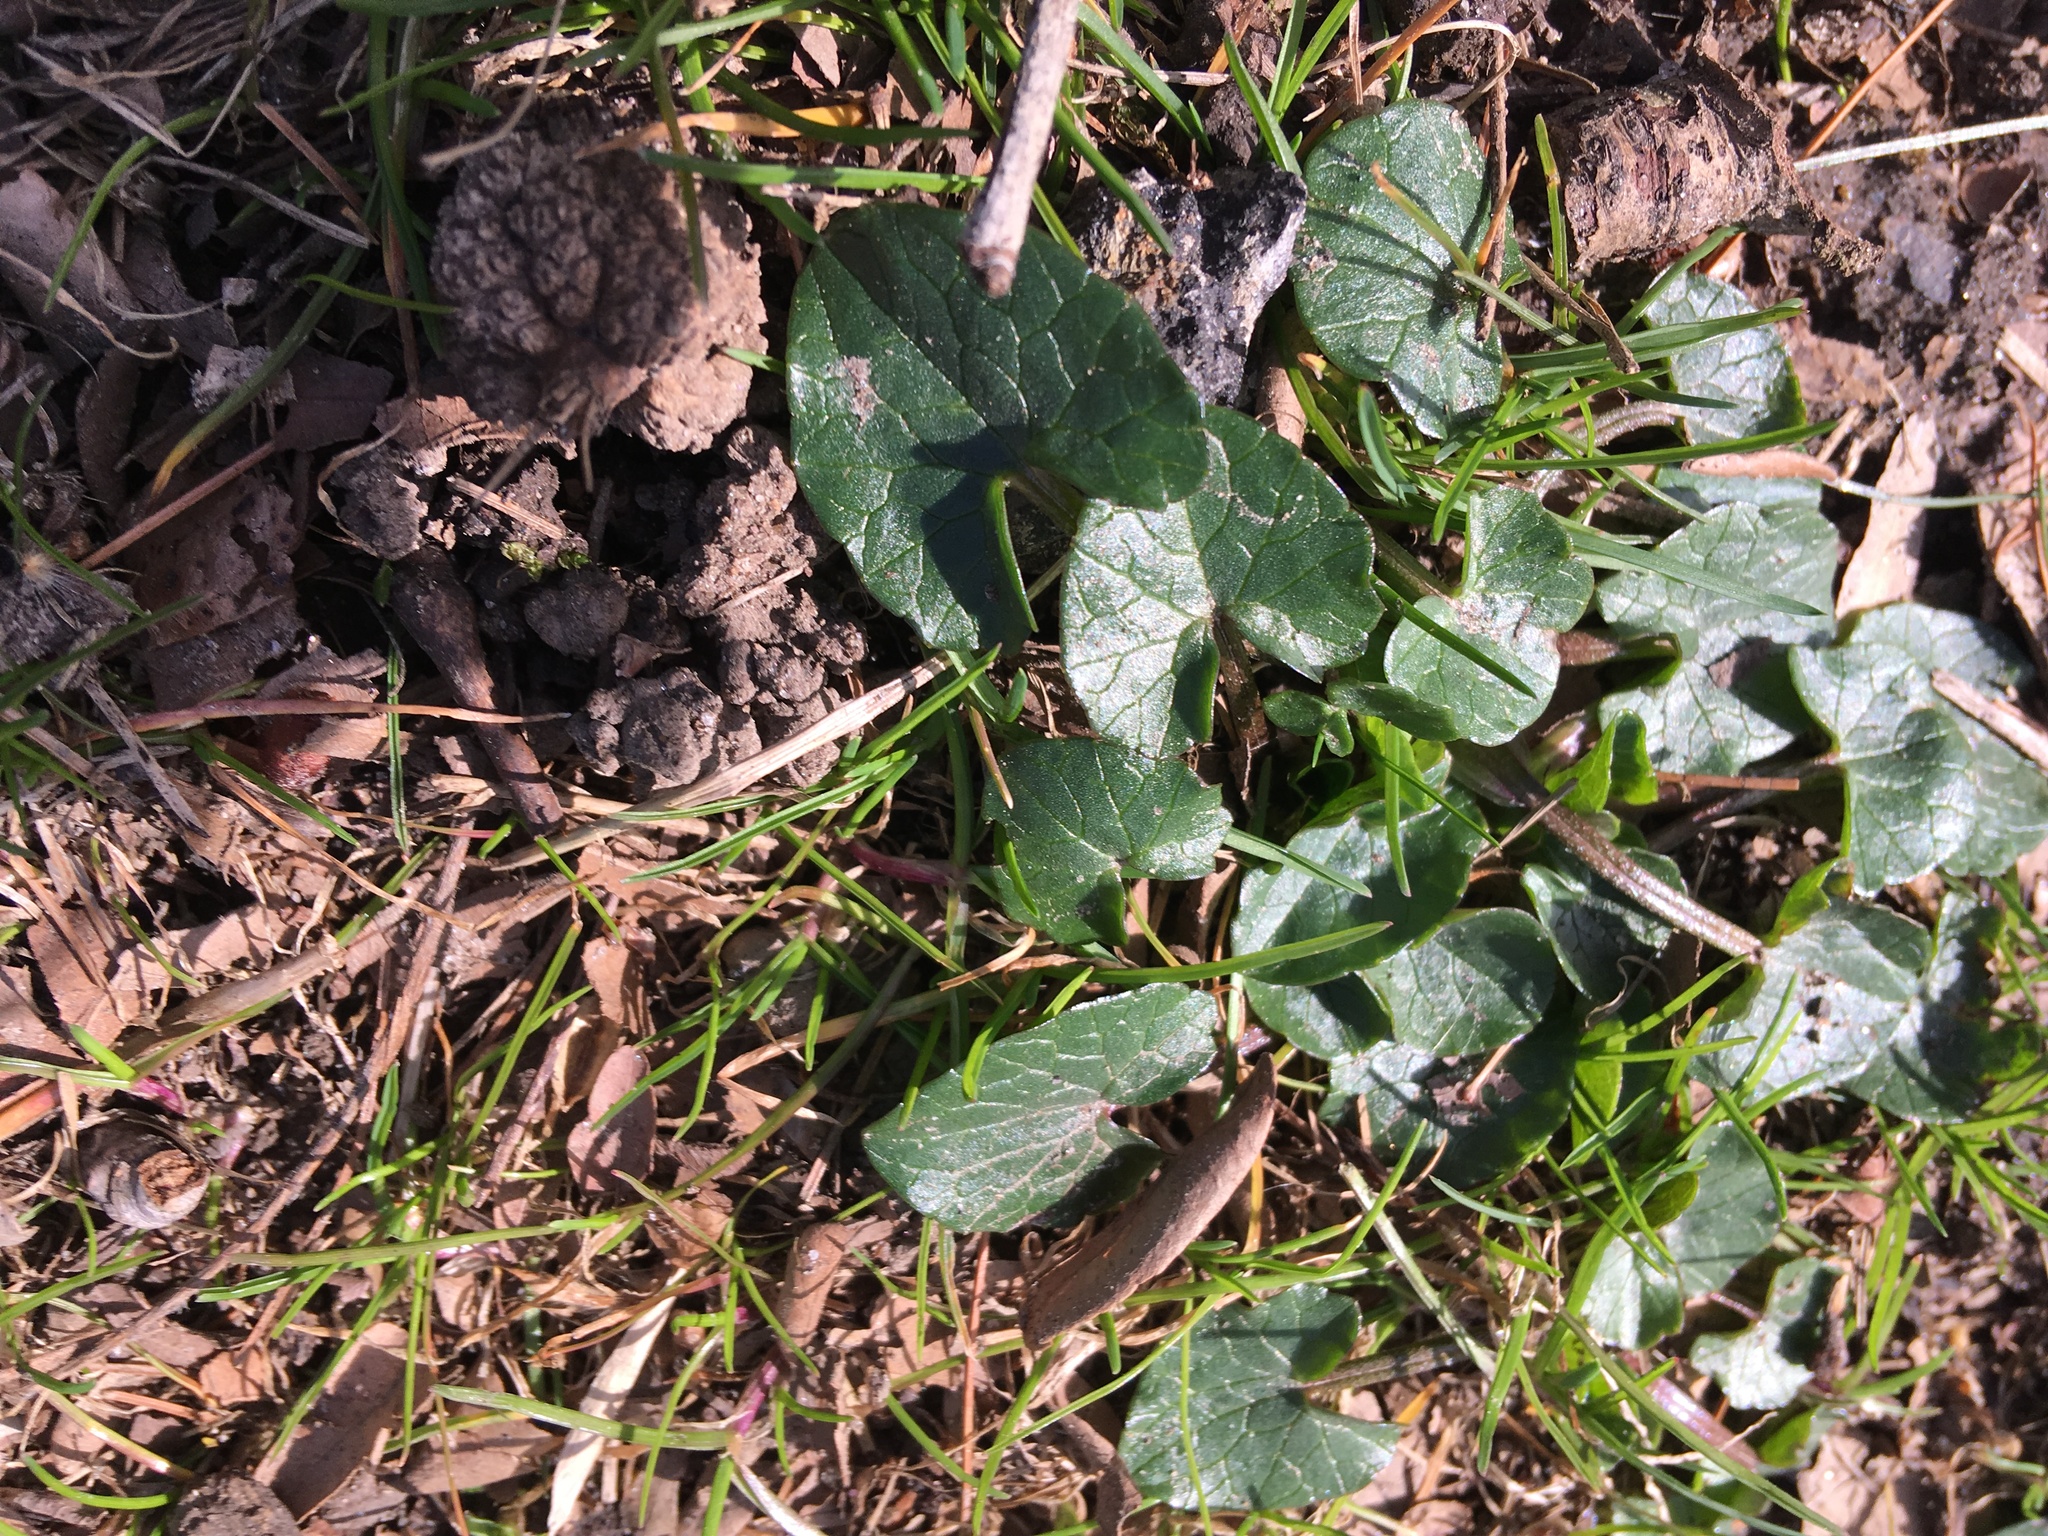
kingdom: Plantae
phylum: Tracheophyta
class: Magnoliopsida
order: Ranunculales
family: Ranunculaceae
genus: Ficaria
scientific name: Ficaria verna
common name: Lesser celandine
